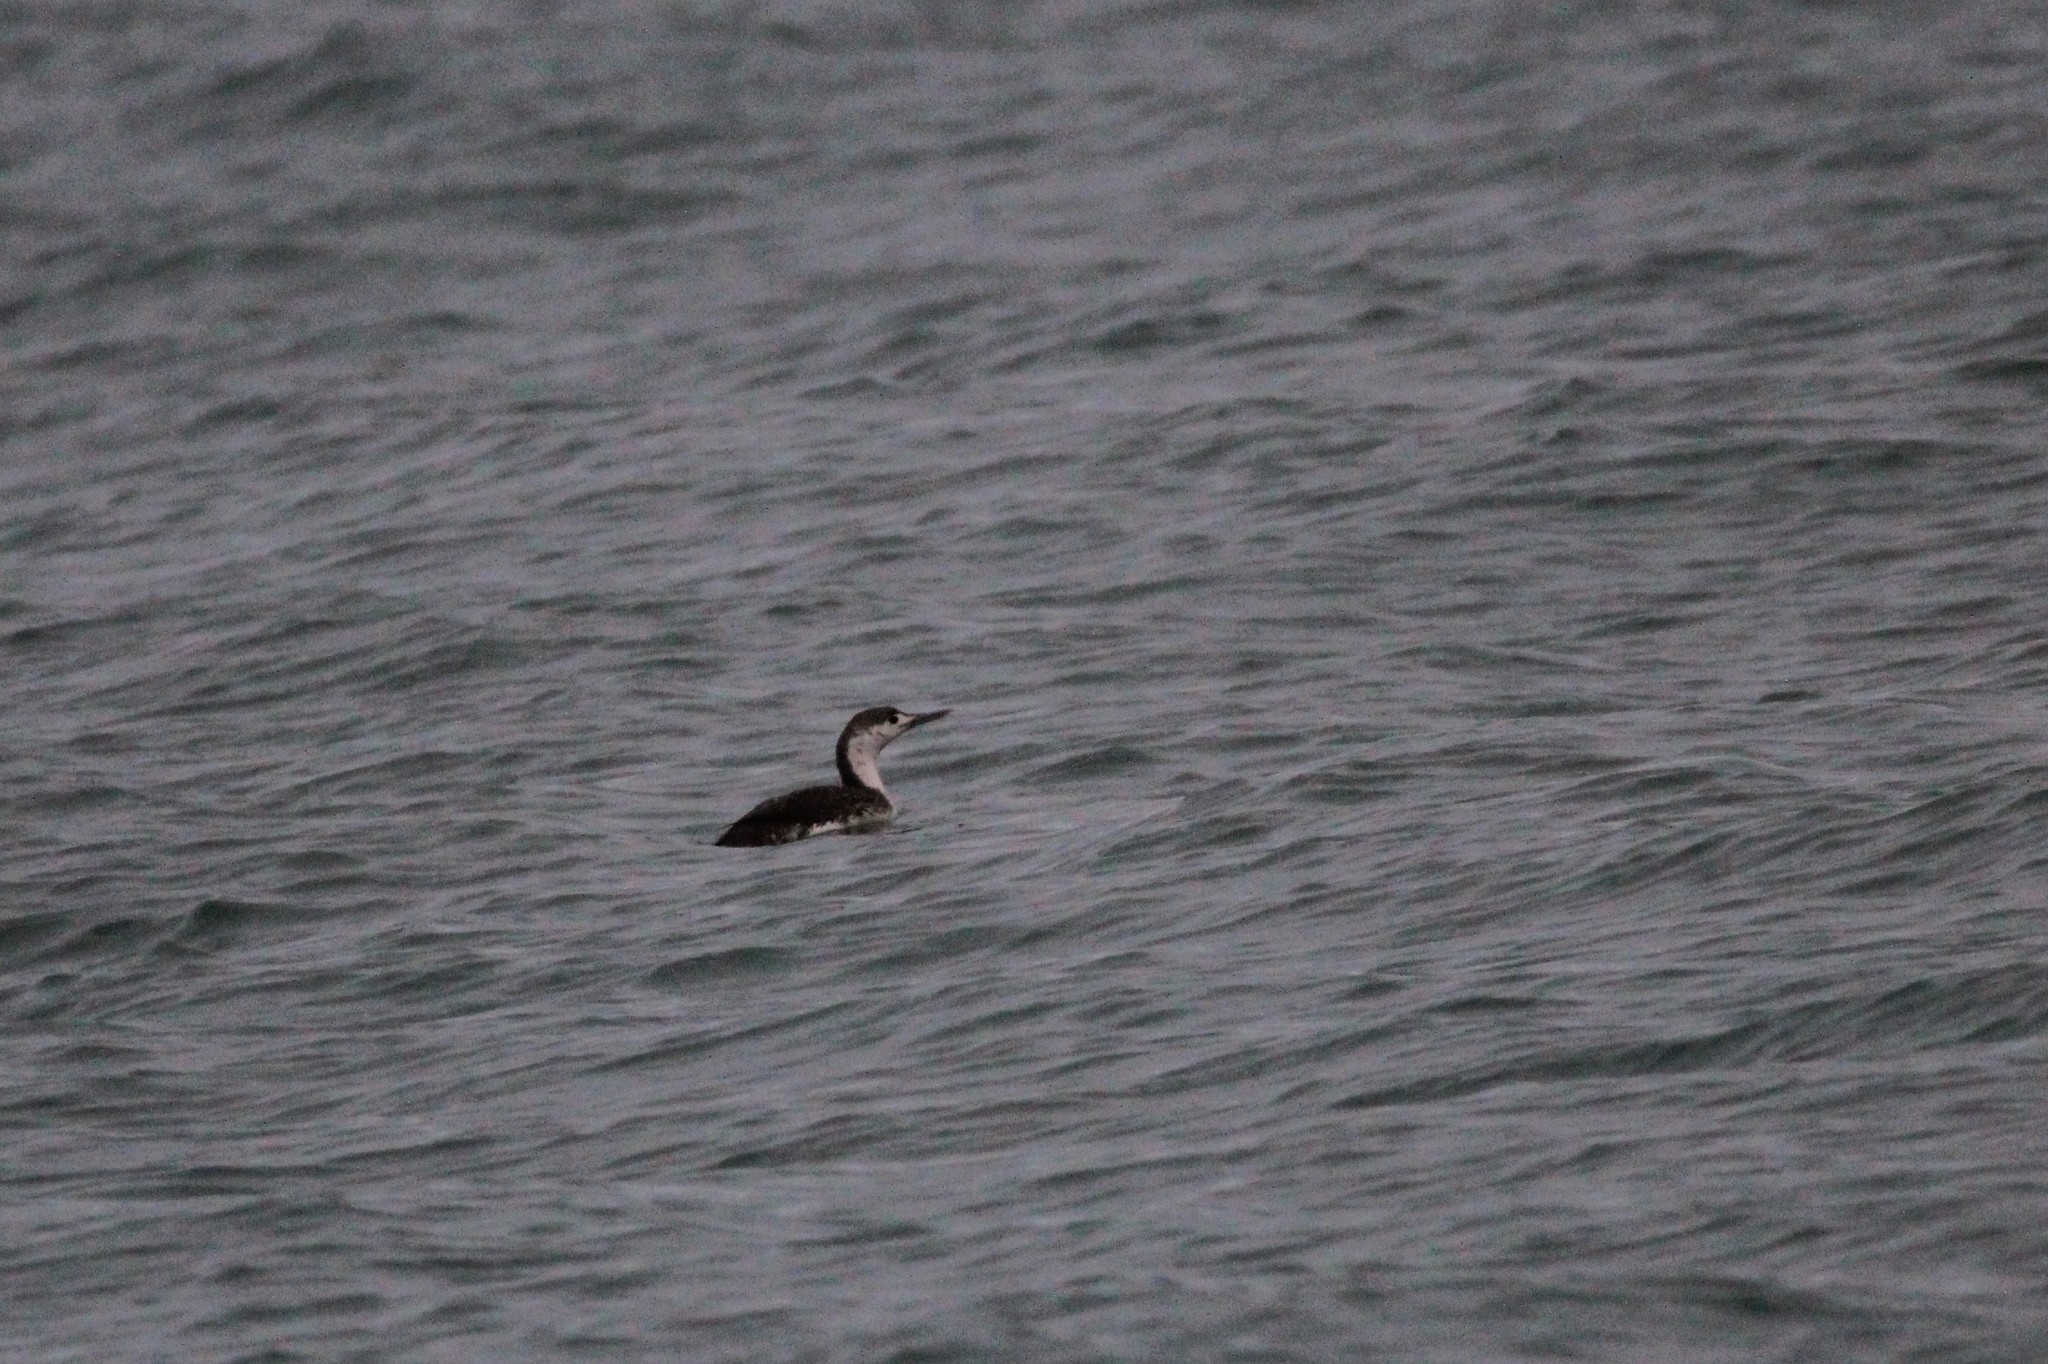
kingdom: Animalia
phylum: Chordata
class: Aves
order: Gaviiformes
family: Gaviidae
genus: Gavia
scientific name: Gavia stellata
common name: Red-throated loon
